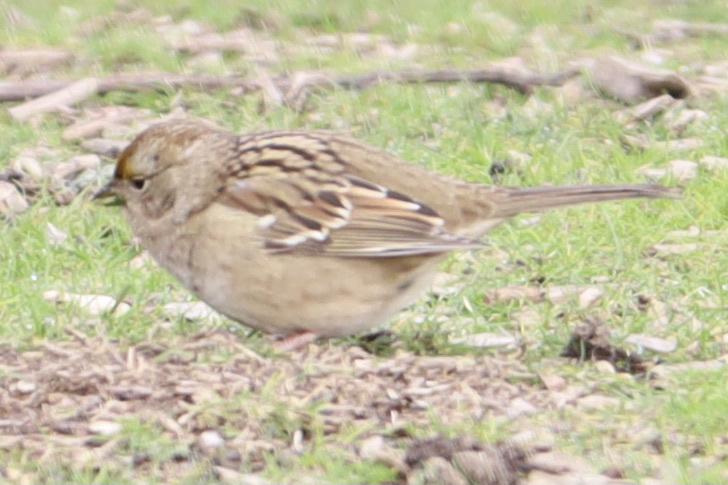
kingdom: Animalia
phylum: Chordata
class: Aves
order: Passeriformes
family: Passerellidae
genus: Zonotrichia
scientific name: Zonotrichia atricapilla
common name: Golden-crowned sparrow
